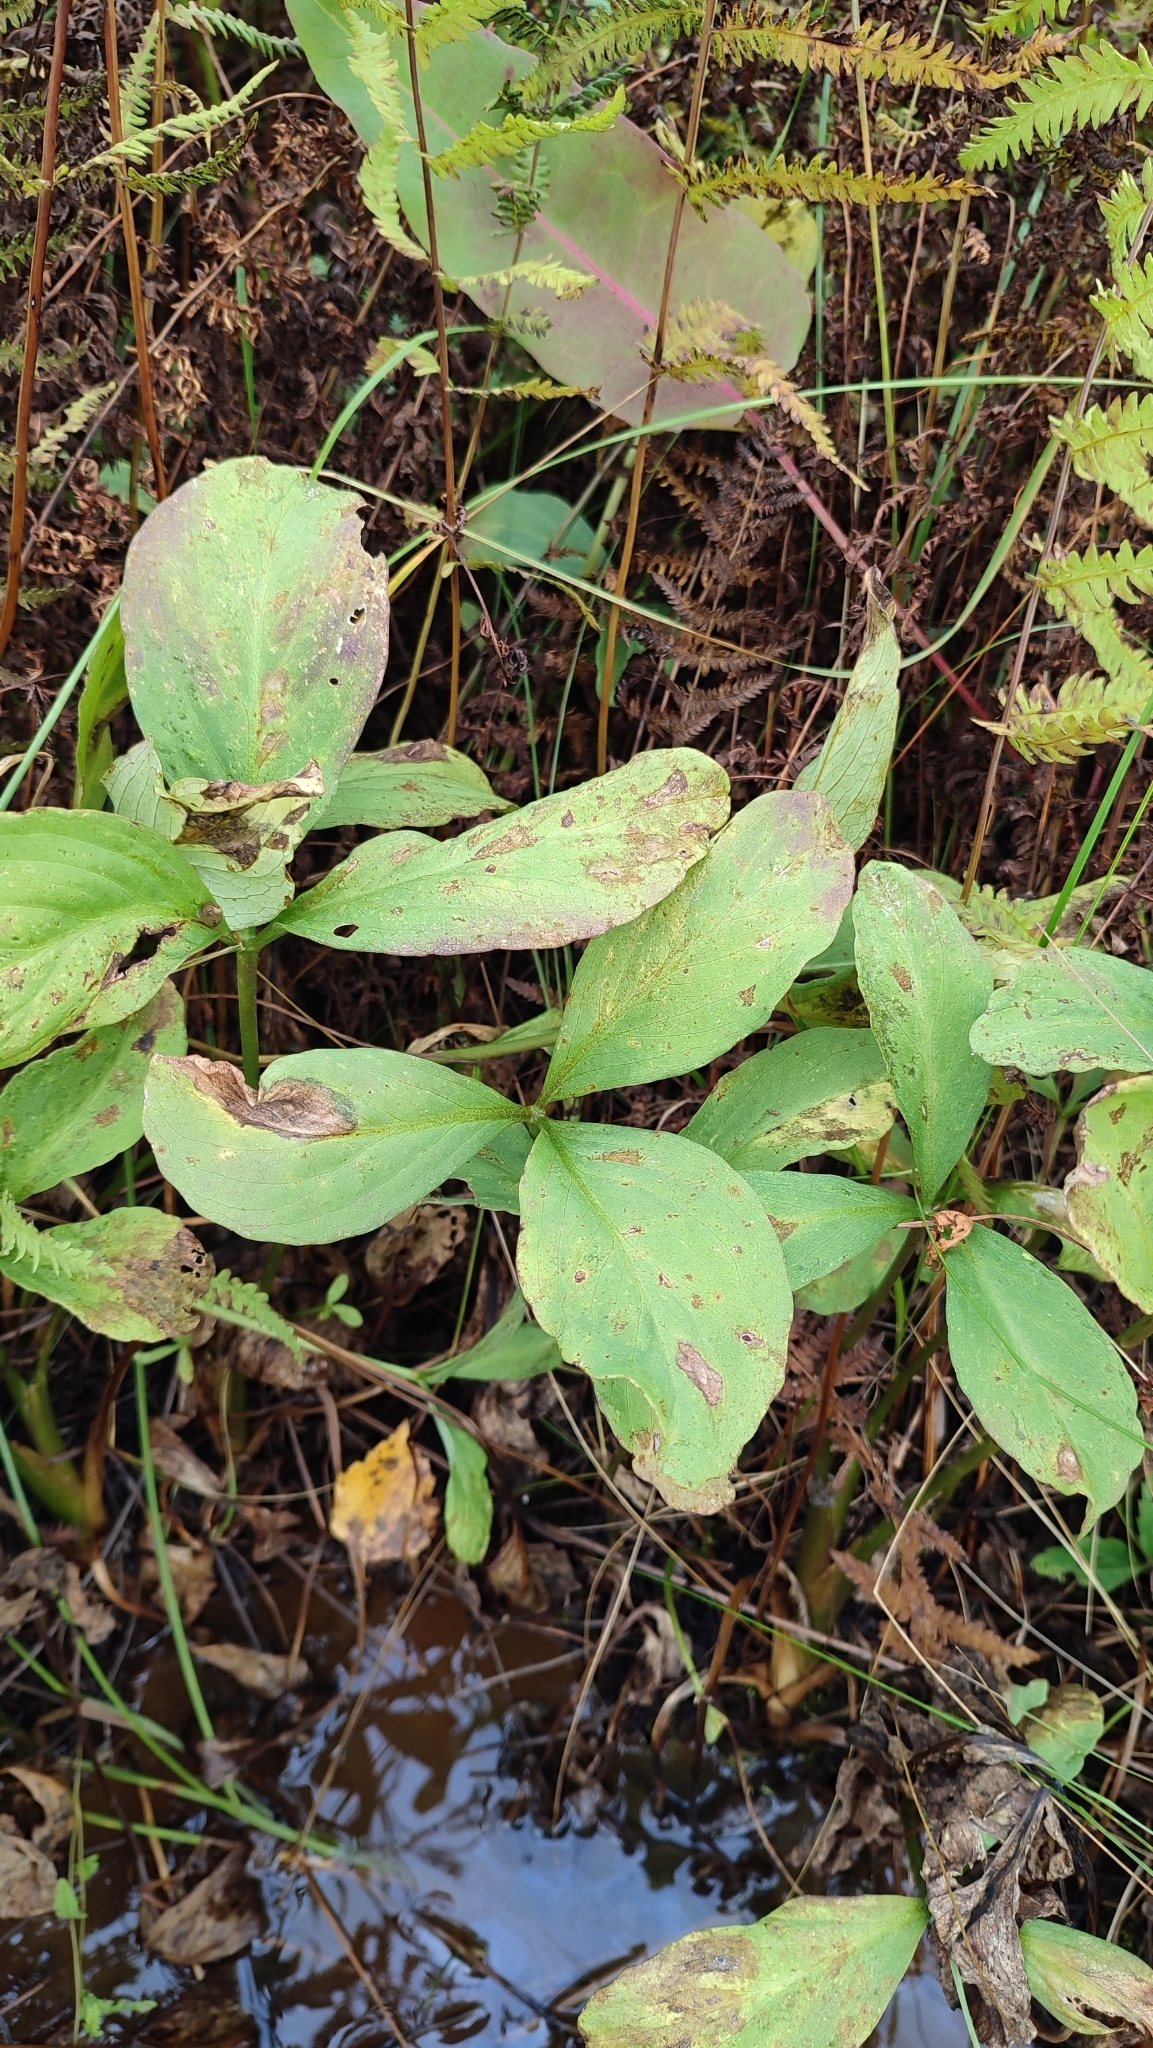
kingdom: Plantae
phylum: Tracheophyta
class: Magnoliopsida
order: Asterales
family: Menyanthaceae
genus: Menyanthes
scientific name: Menyanthes trifoliata
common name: Bogbean
